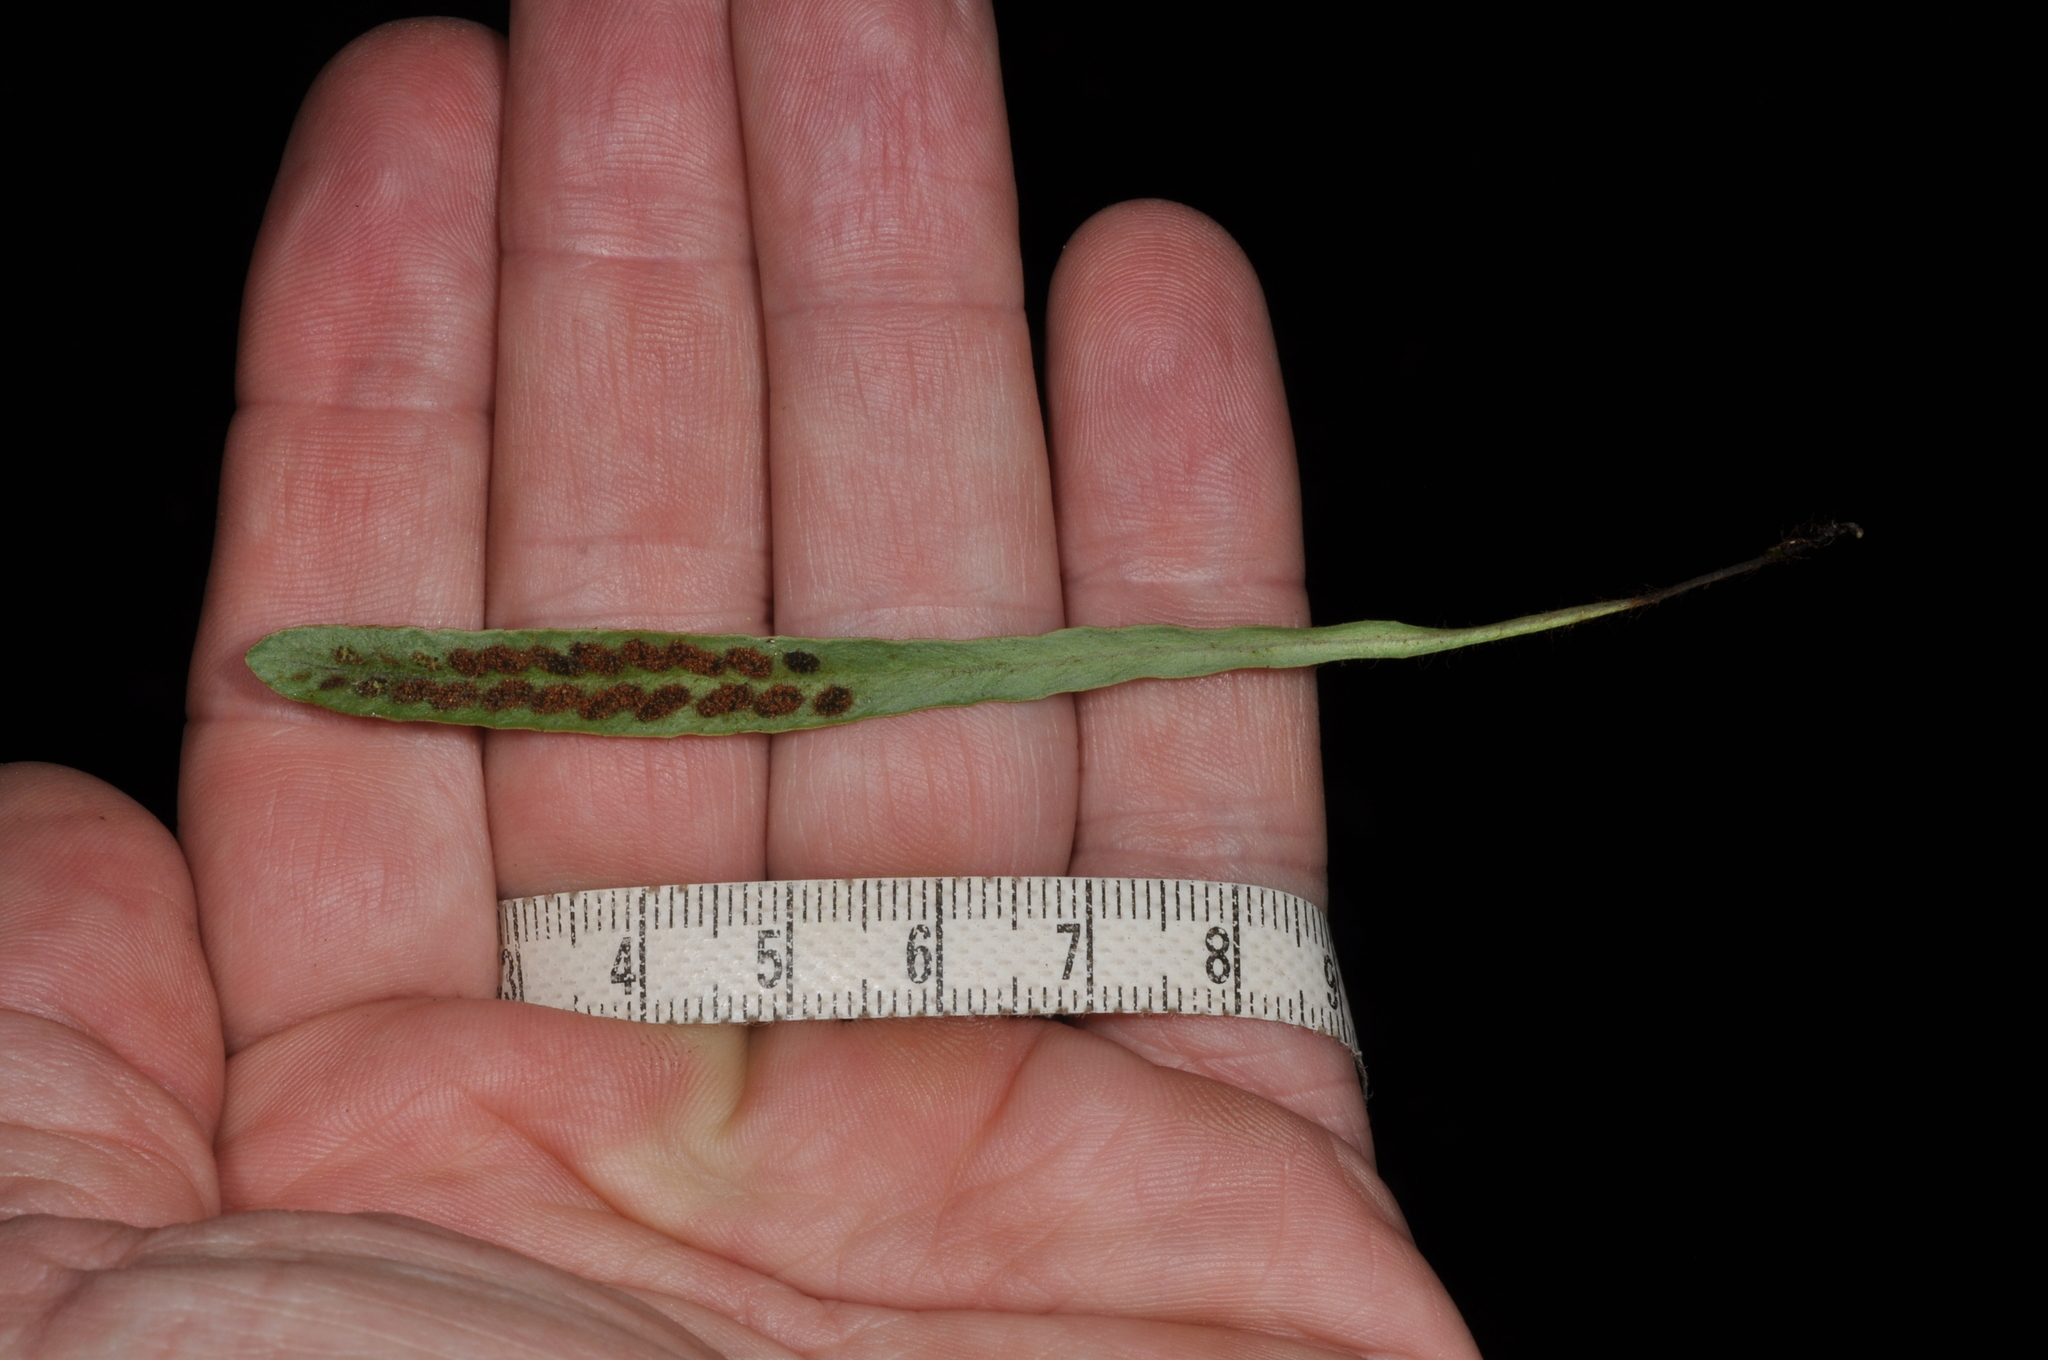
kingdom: Plantae
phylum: Tracheophyta
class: Polypodiopsida
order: Polypodiales
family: Polypodiaceae
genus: Notogrammitis
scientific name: Notogrammitis patagonica
